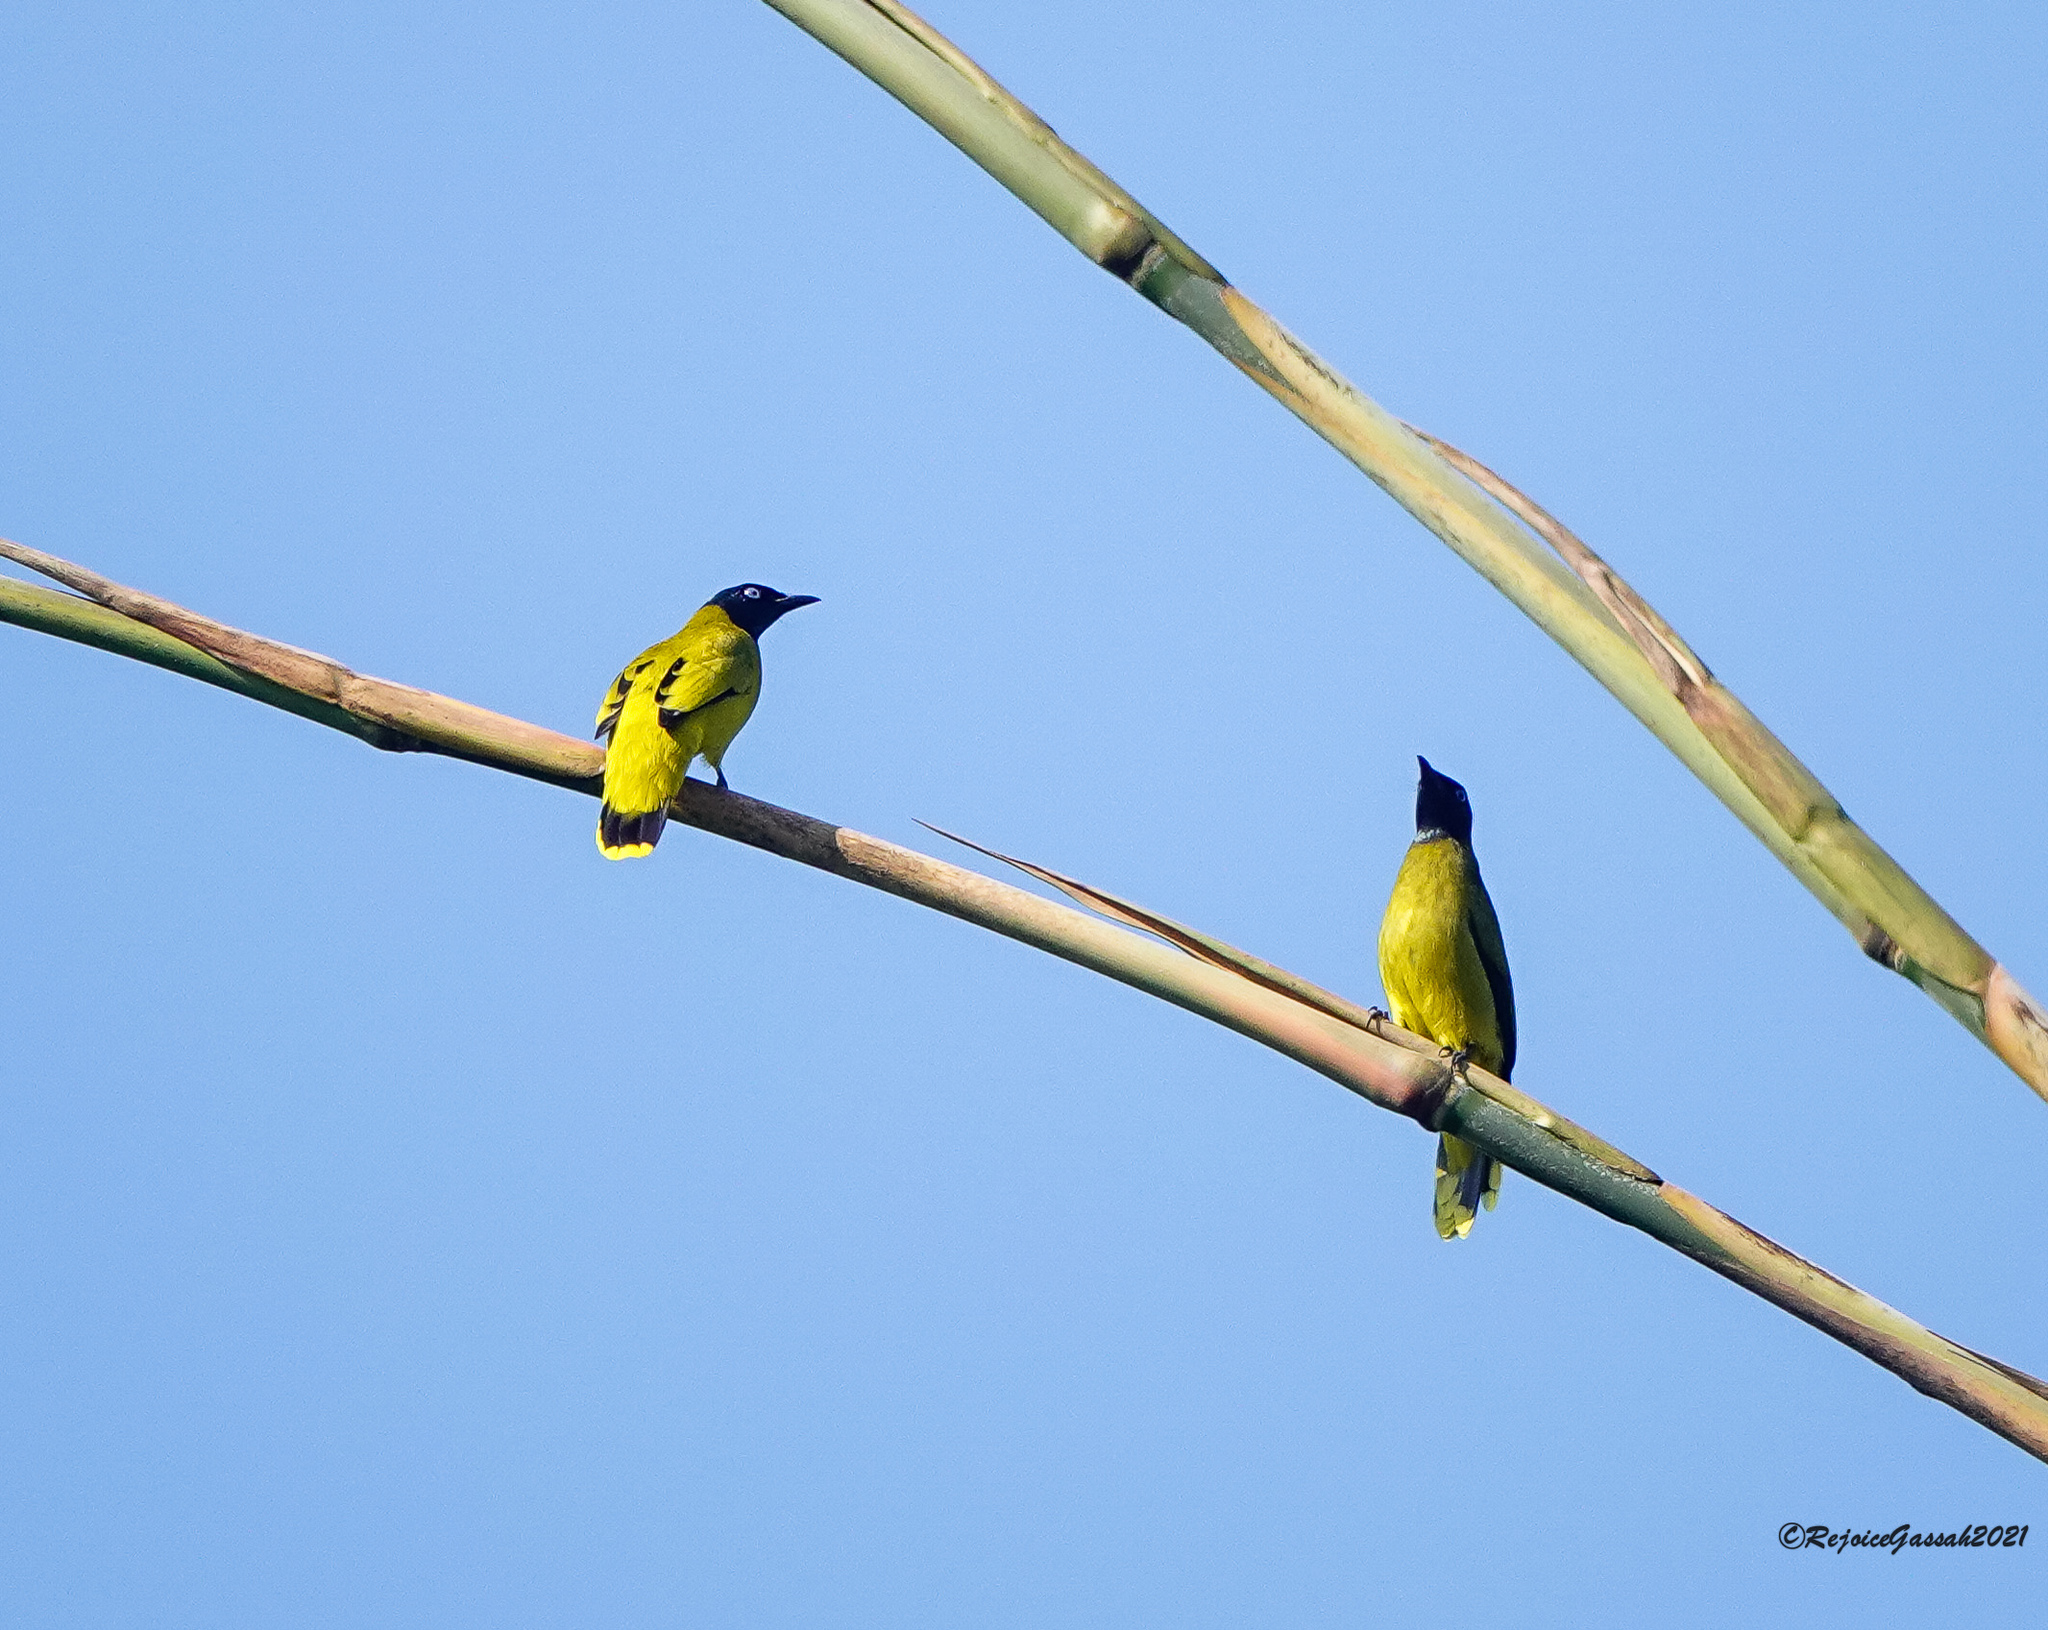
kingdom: Animalia
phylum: Chordata
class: Aves
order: Passeriformes
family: Pycnonotidae
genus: Microtarsus
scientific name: Microtarsus
